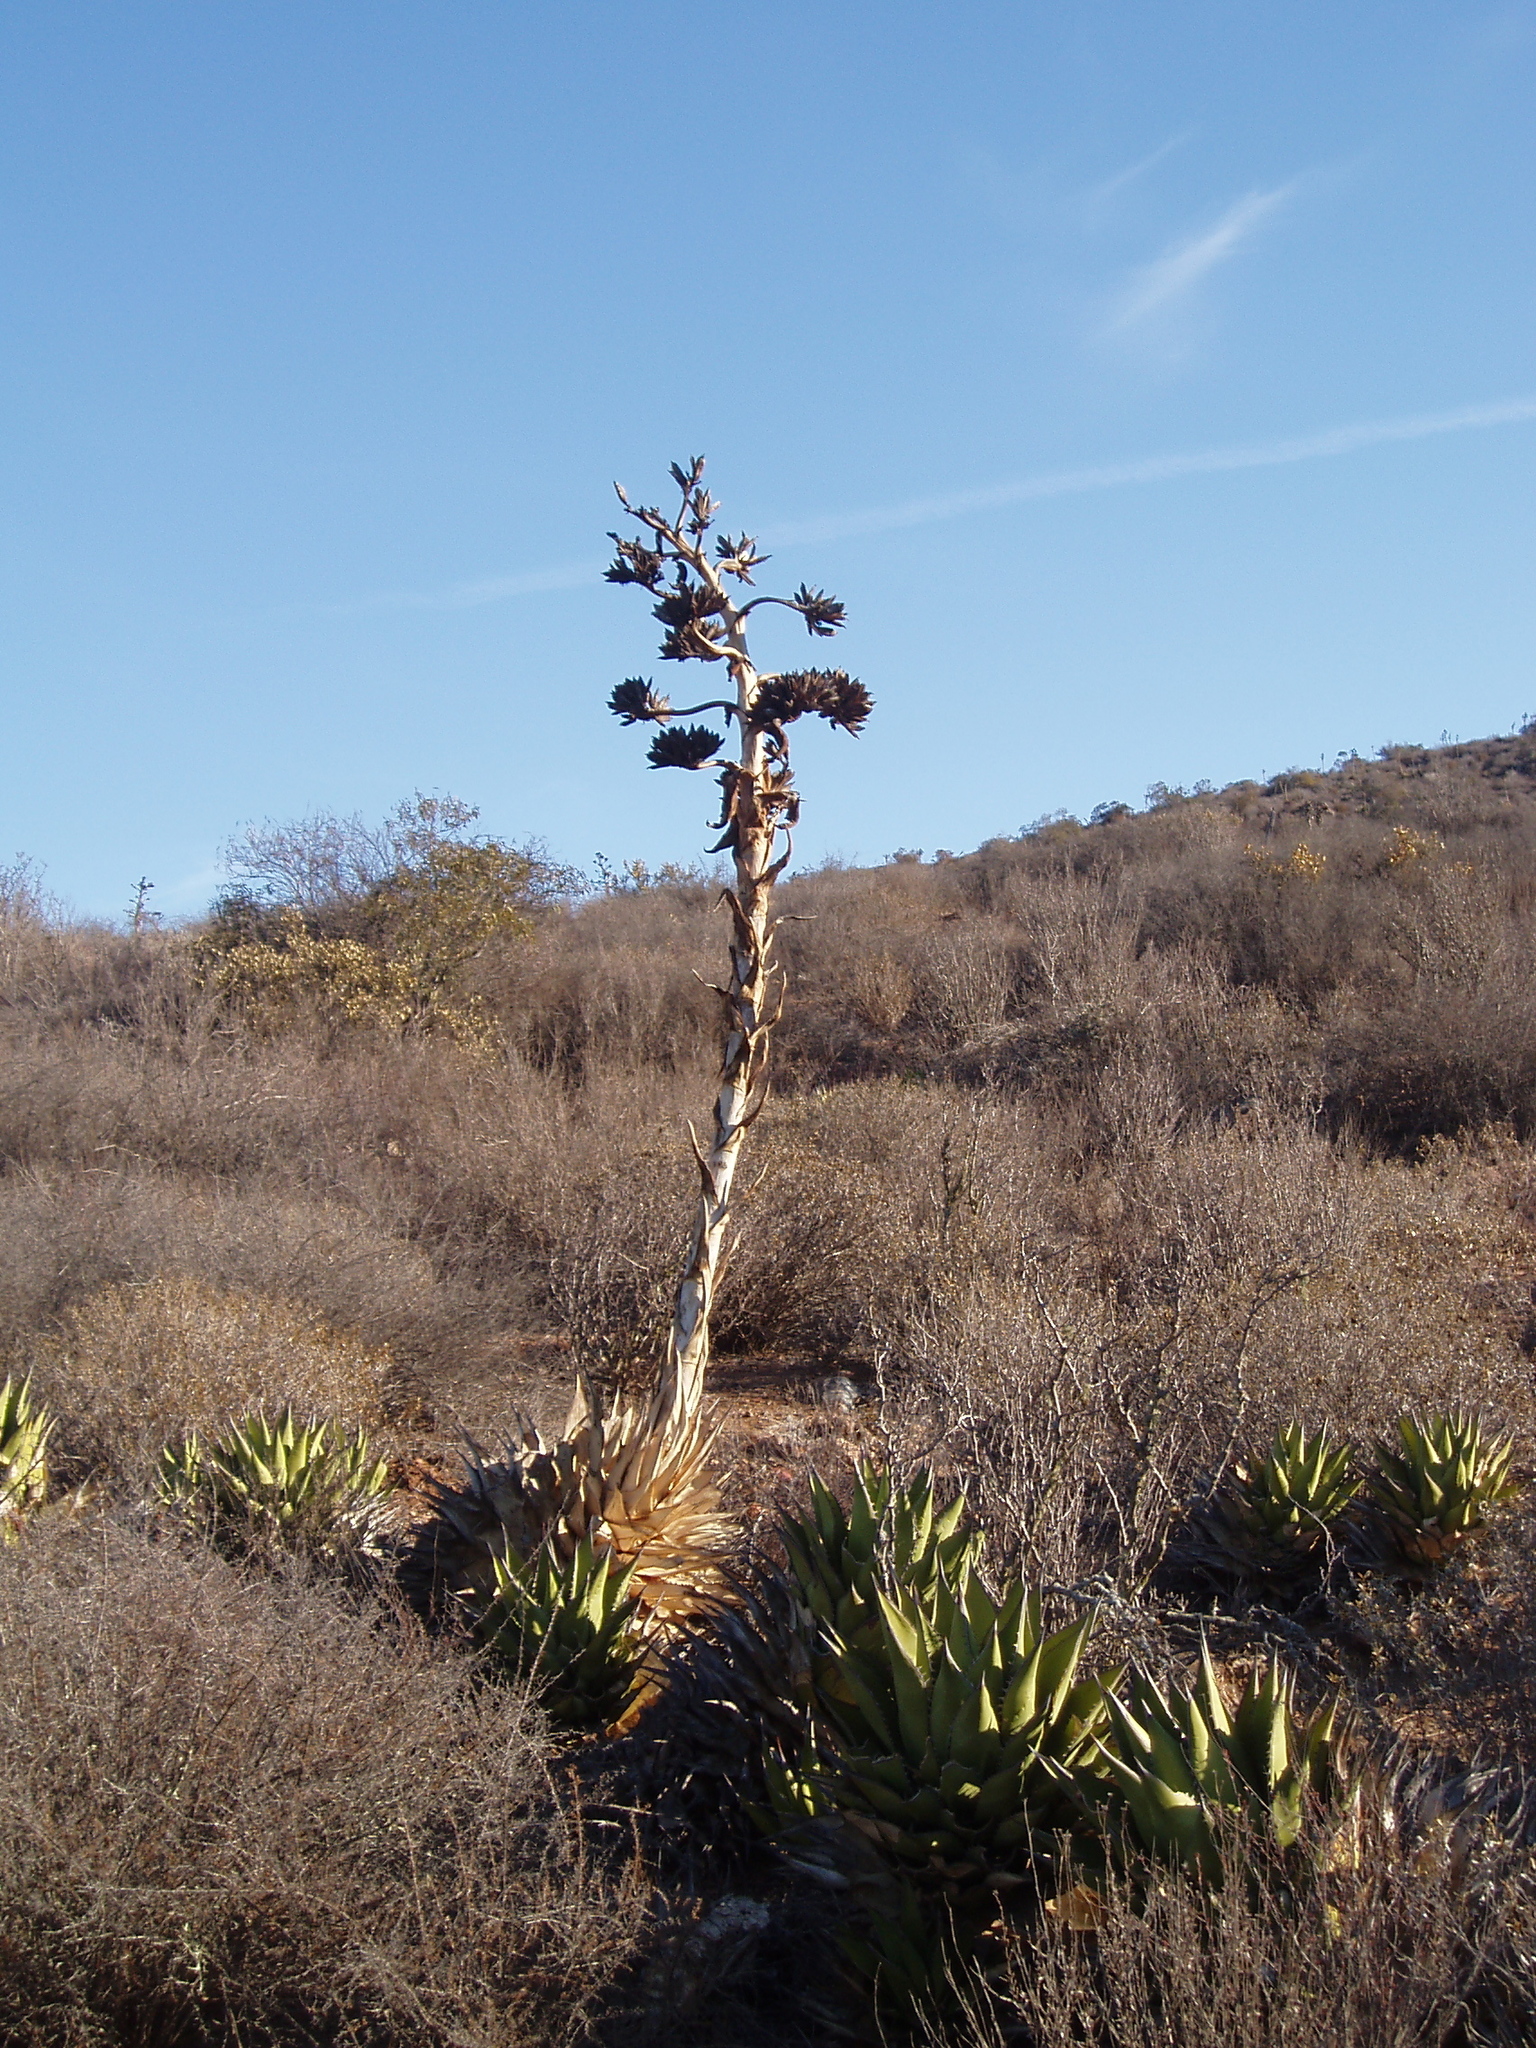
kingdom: Plantae
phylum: Tracheophyta
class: Liliopsida
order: Asparagales
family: Asparagaceae
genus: Agave
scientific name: Agave shawii
